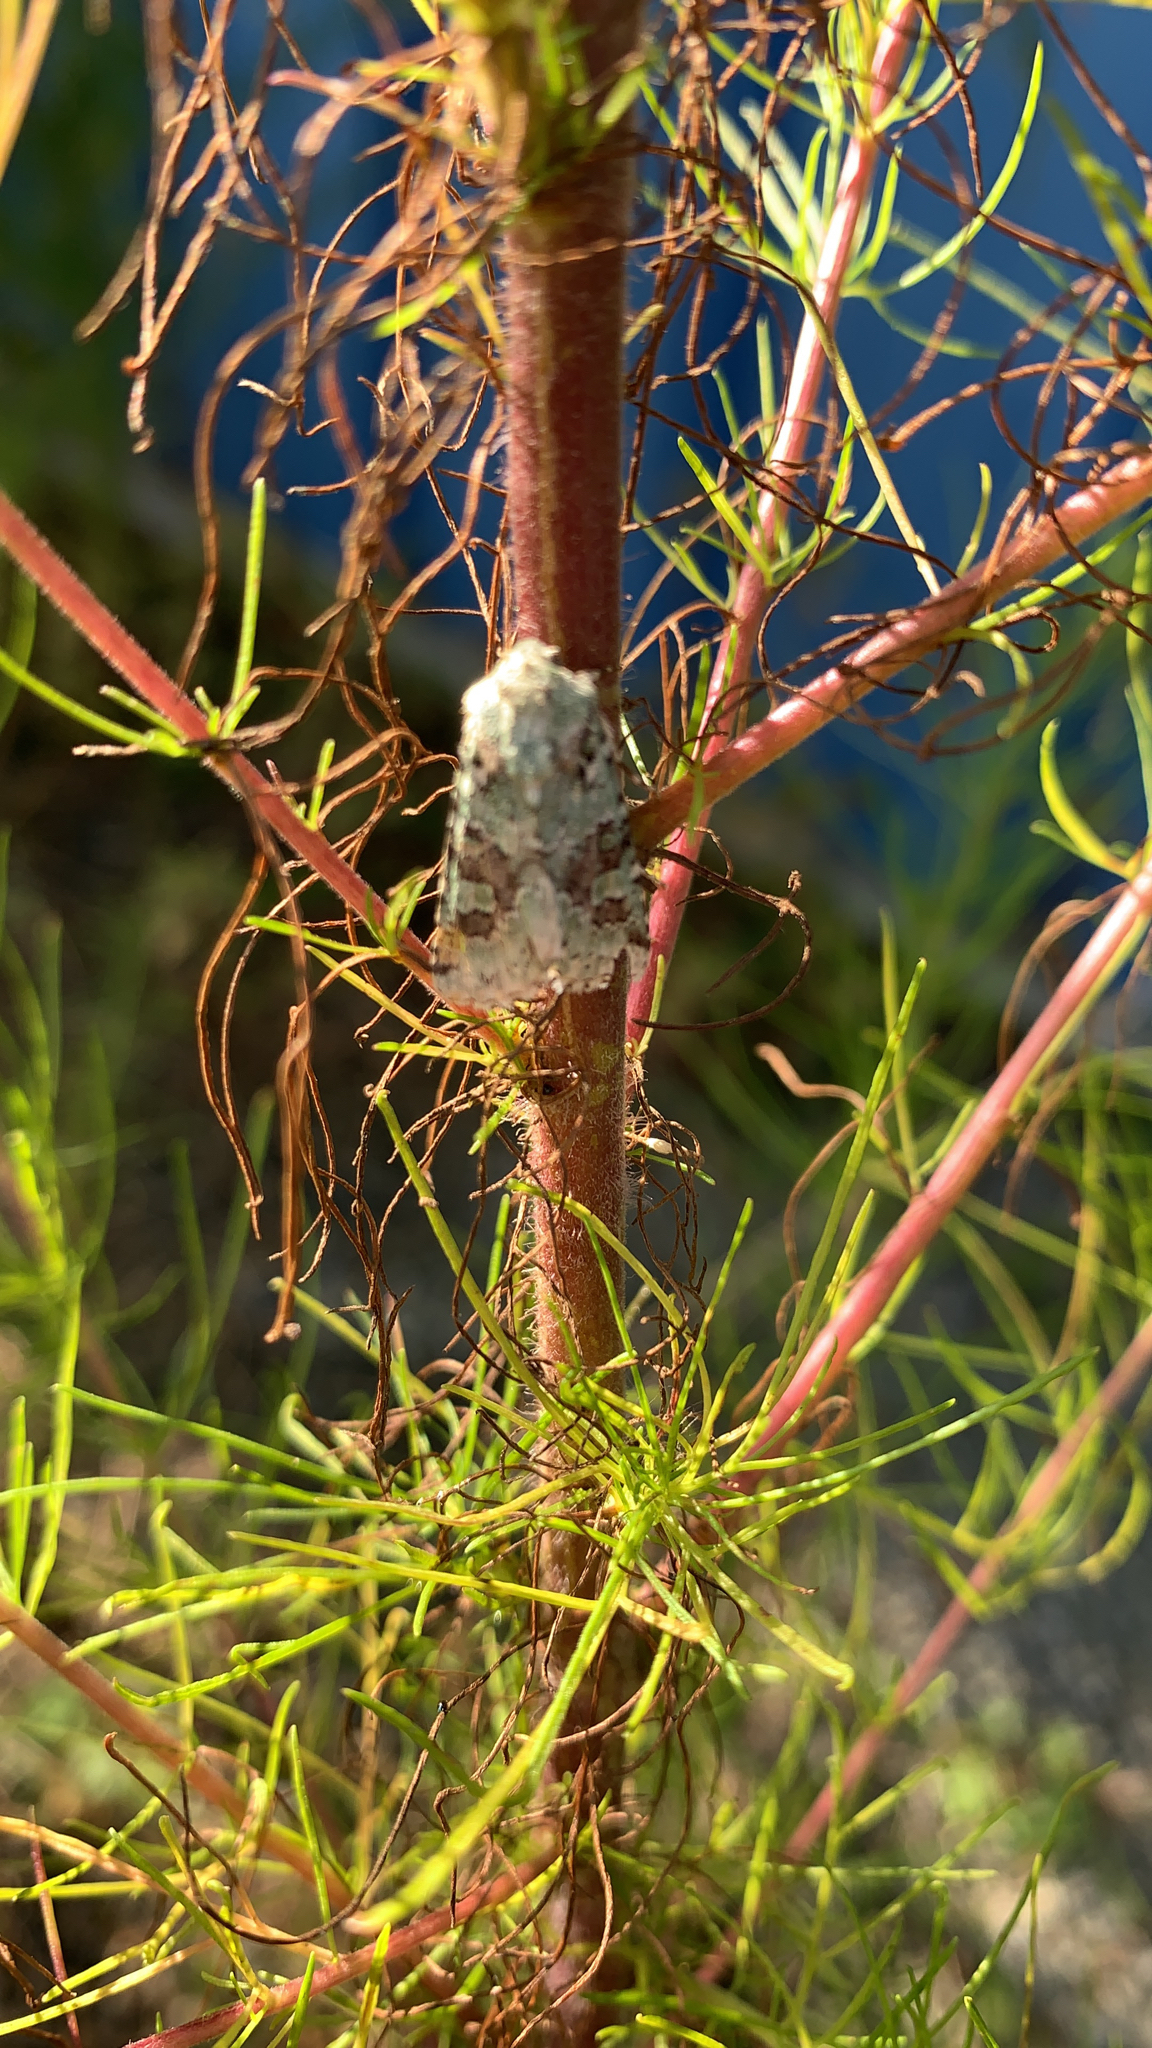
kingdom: Animalia
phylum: Arthropoda
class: Insecta
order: Lepidoptera
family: Noctuidae
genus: Lacinipolia
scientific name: Lacinipolia laudabilis
